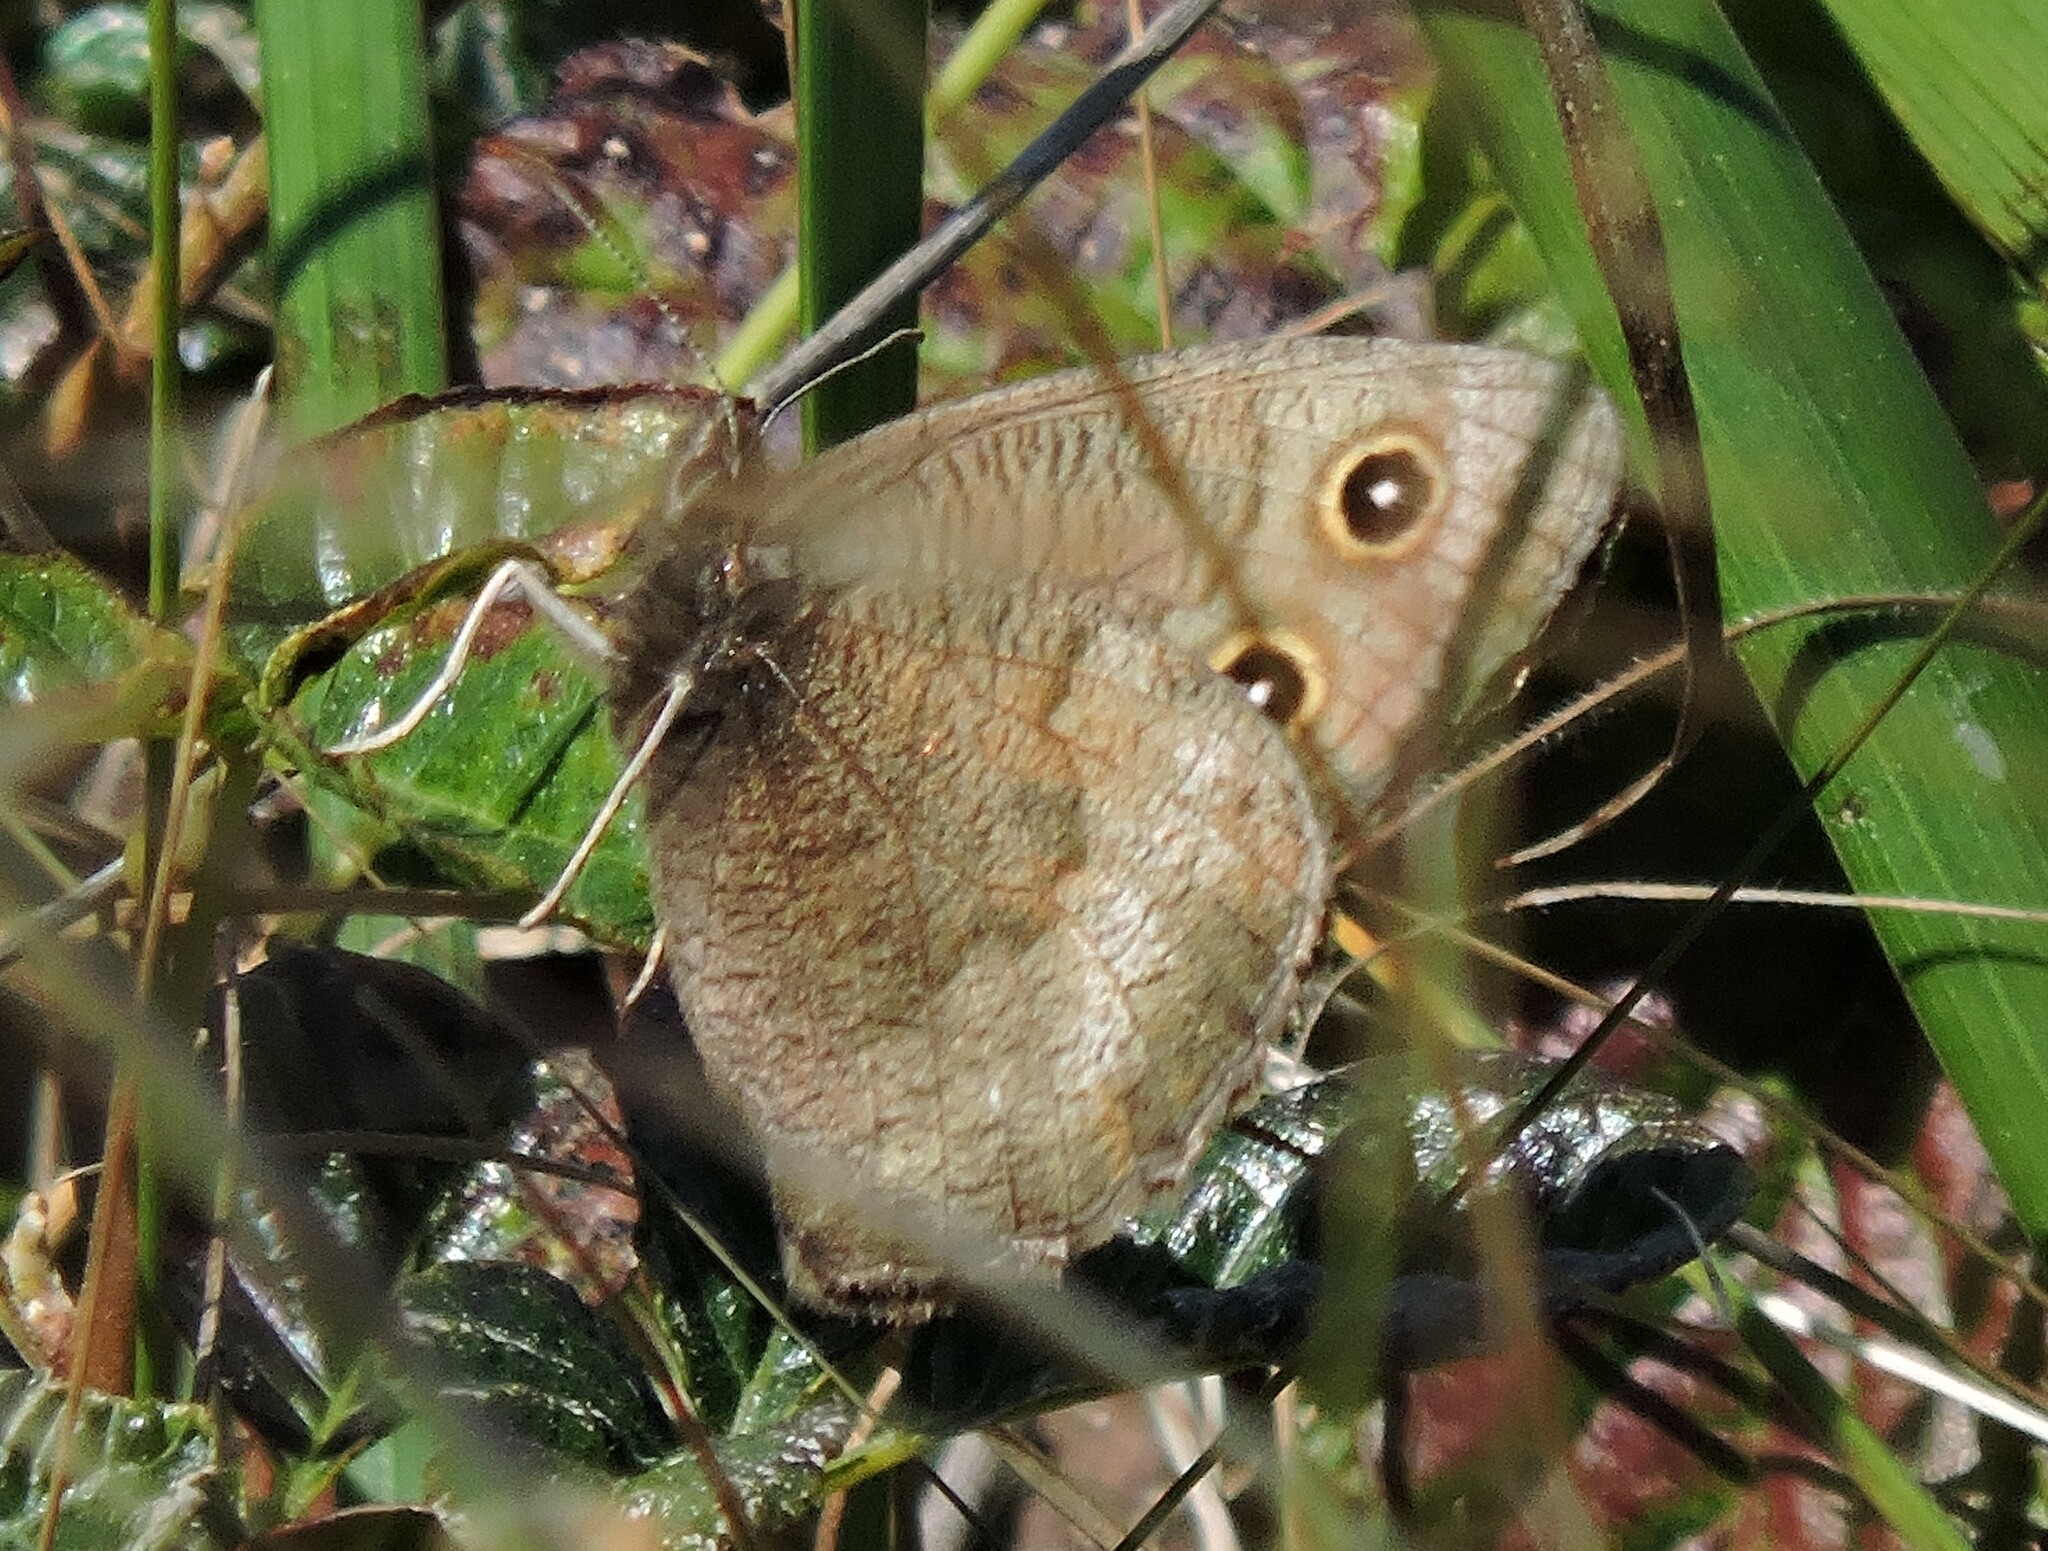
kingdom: Animalia
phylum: Arthropoda
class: Insecta
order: Lepidoptera
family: Nymphalidae
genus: Cercyonis
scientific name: Cercyonis pegala
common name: Common wood-nymph
